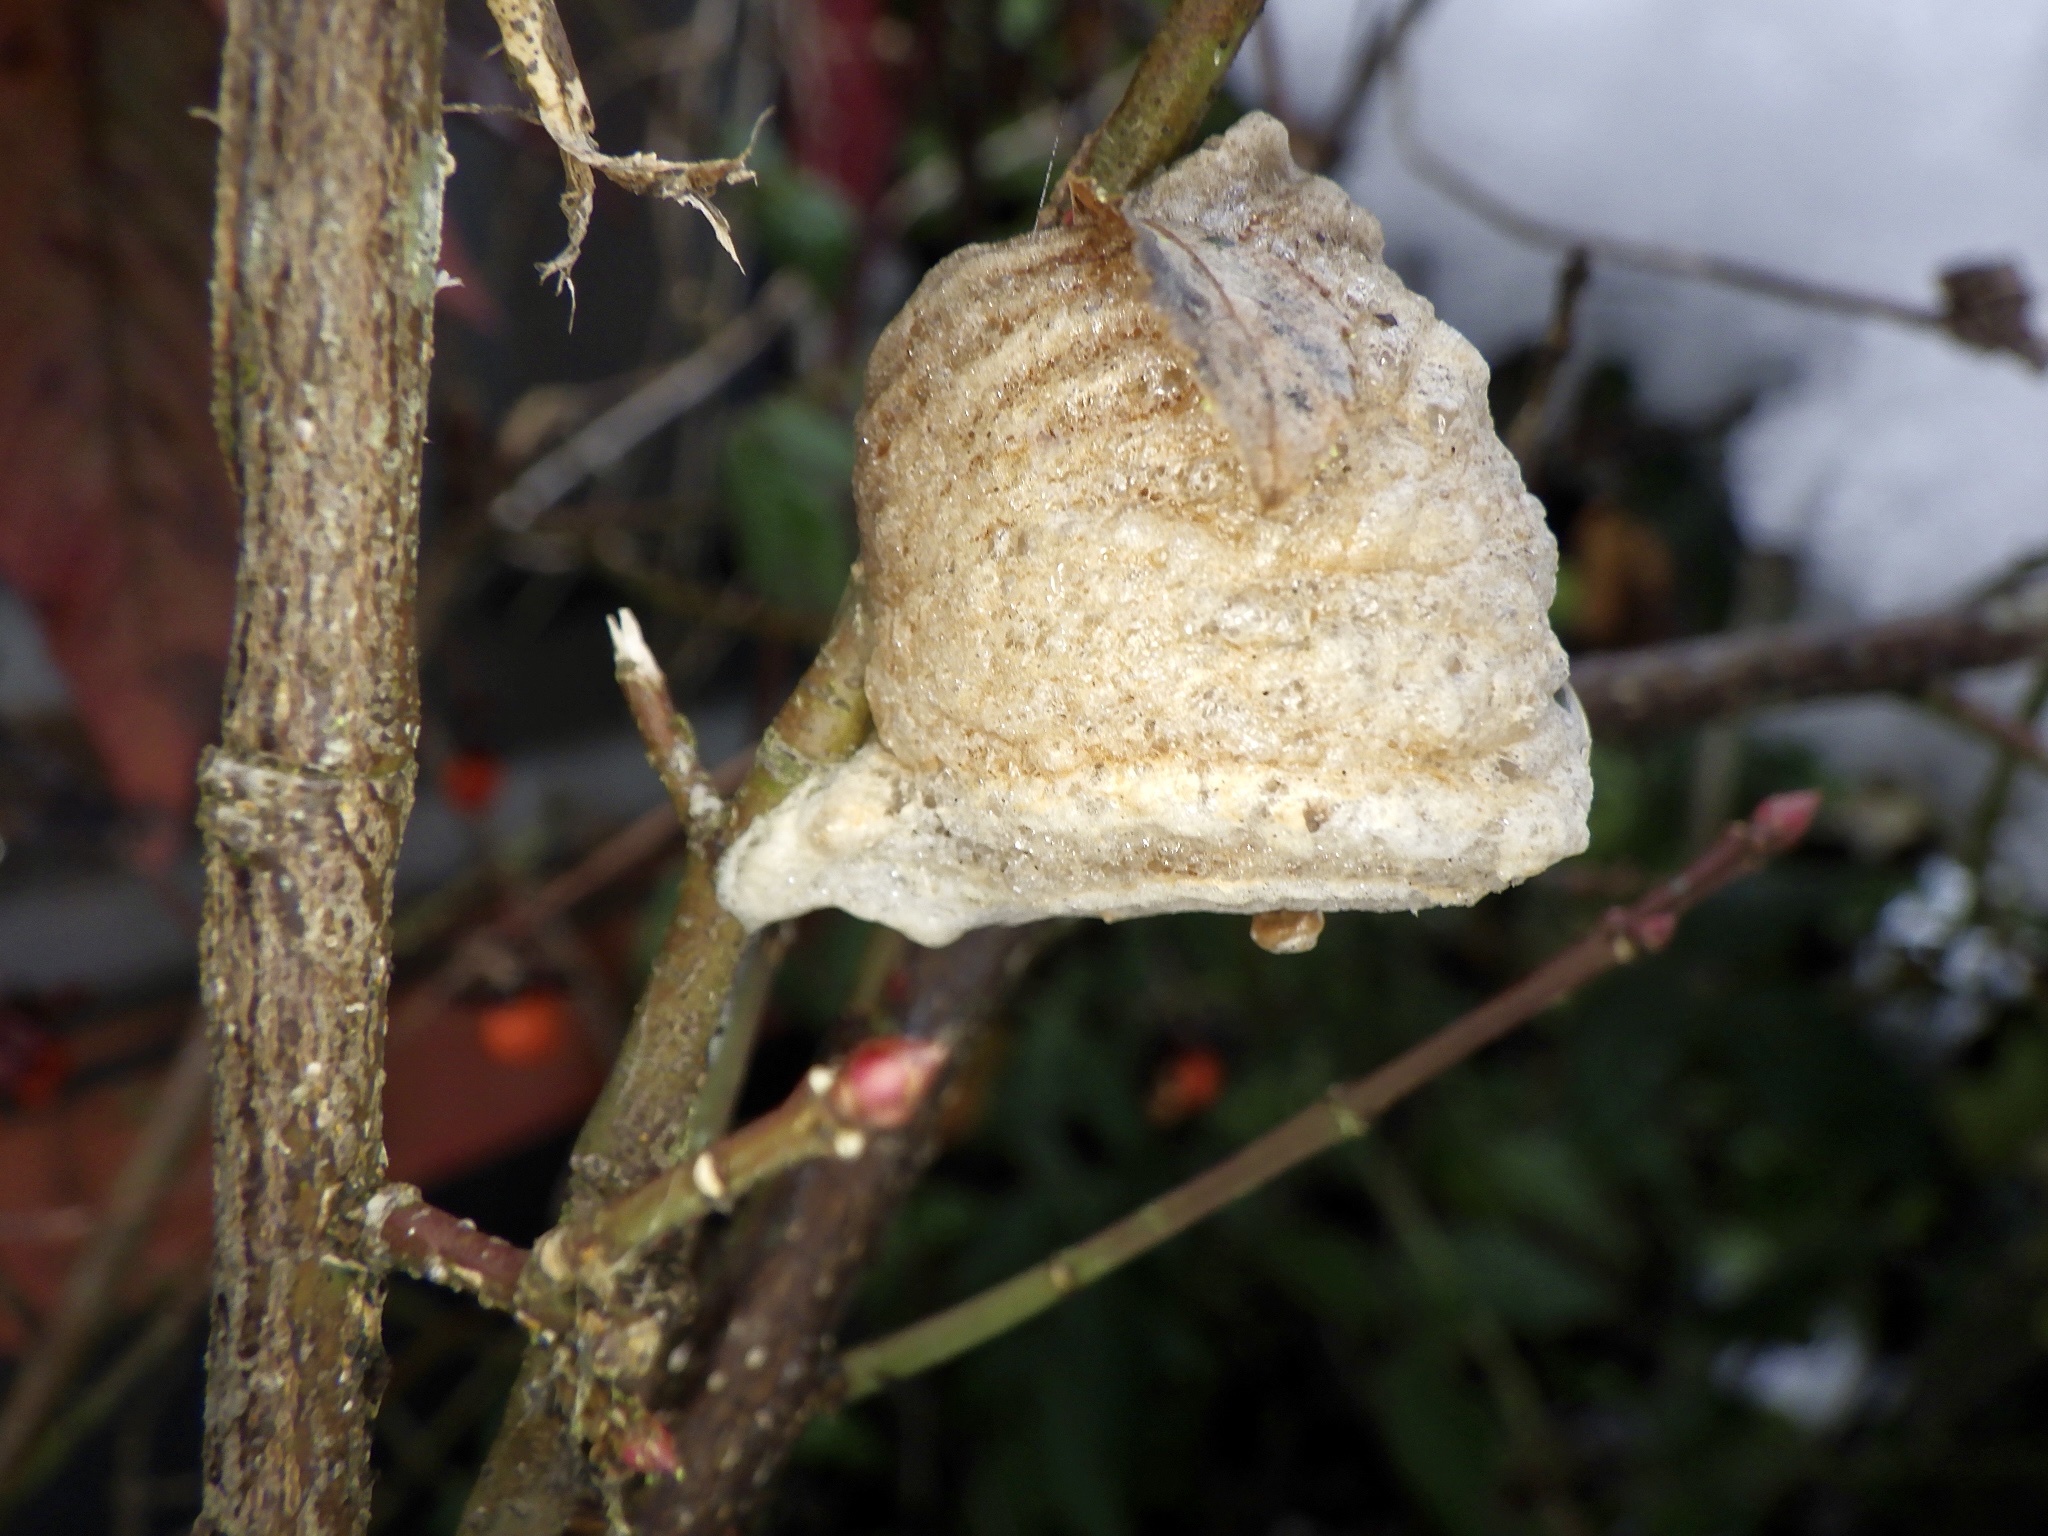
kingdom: Animalia
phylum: Arthropoda
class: Insecta
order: Mantodea
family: Mantidae
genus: Tenodera
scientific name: Tenodera sinensis
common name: Chinese mantis
